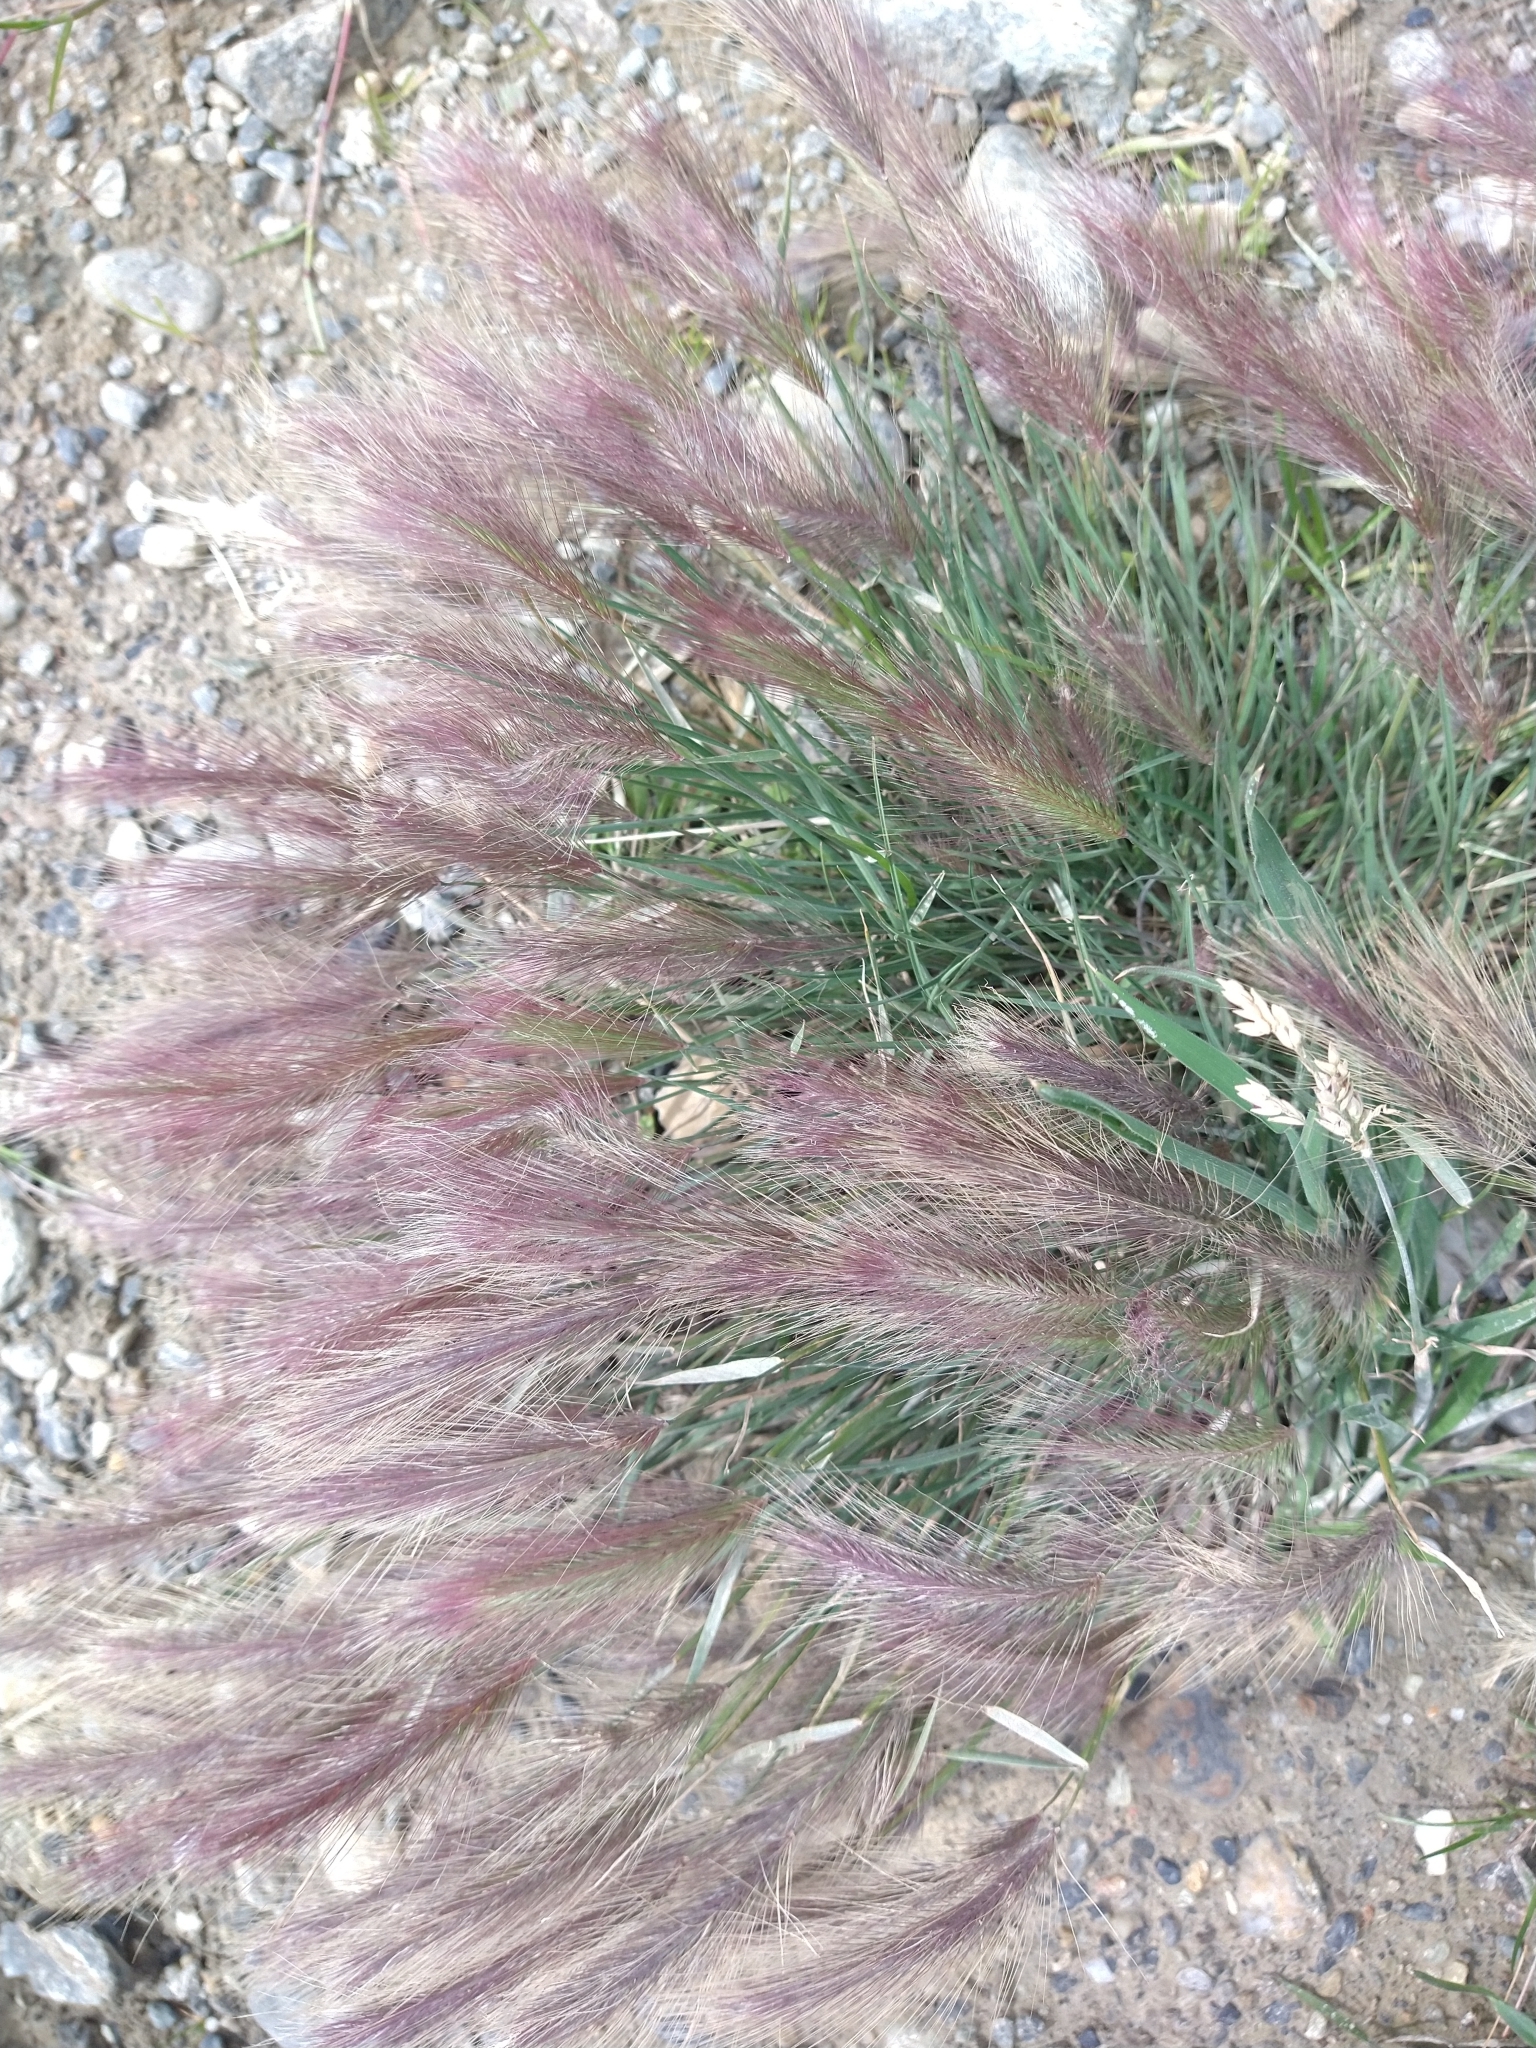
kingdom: Plantae
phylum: Tracheophyta
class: Liliopsida
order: Poales
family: Poaceae
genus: Hordeum
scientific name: Hordeum jubatum
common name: Foxtail barley
